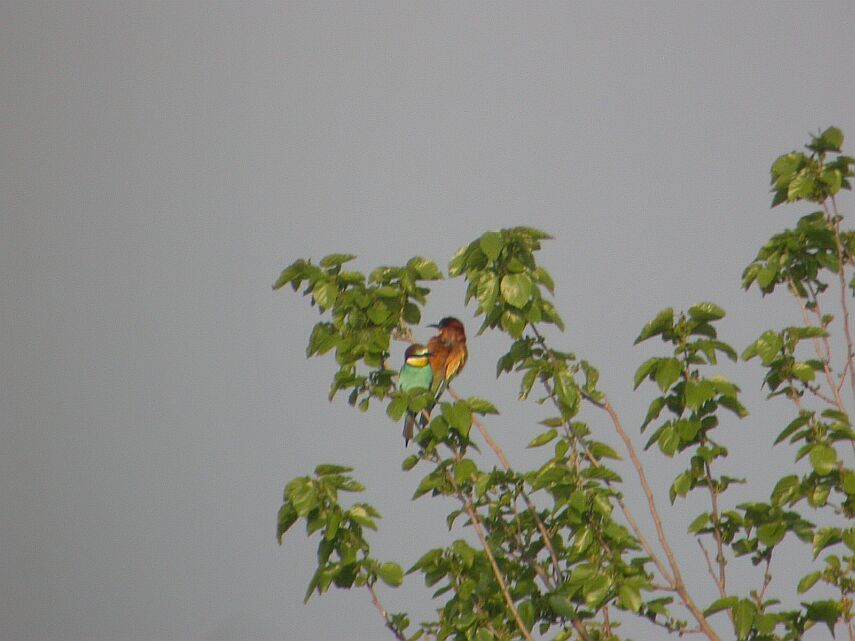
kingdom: Animalia
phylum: Chordata
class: Aves
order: Coraciiformes
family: Meropidae
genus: Merops
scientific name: Merops apiaster
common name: European bee-eater
